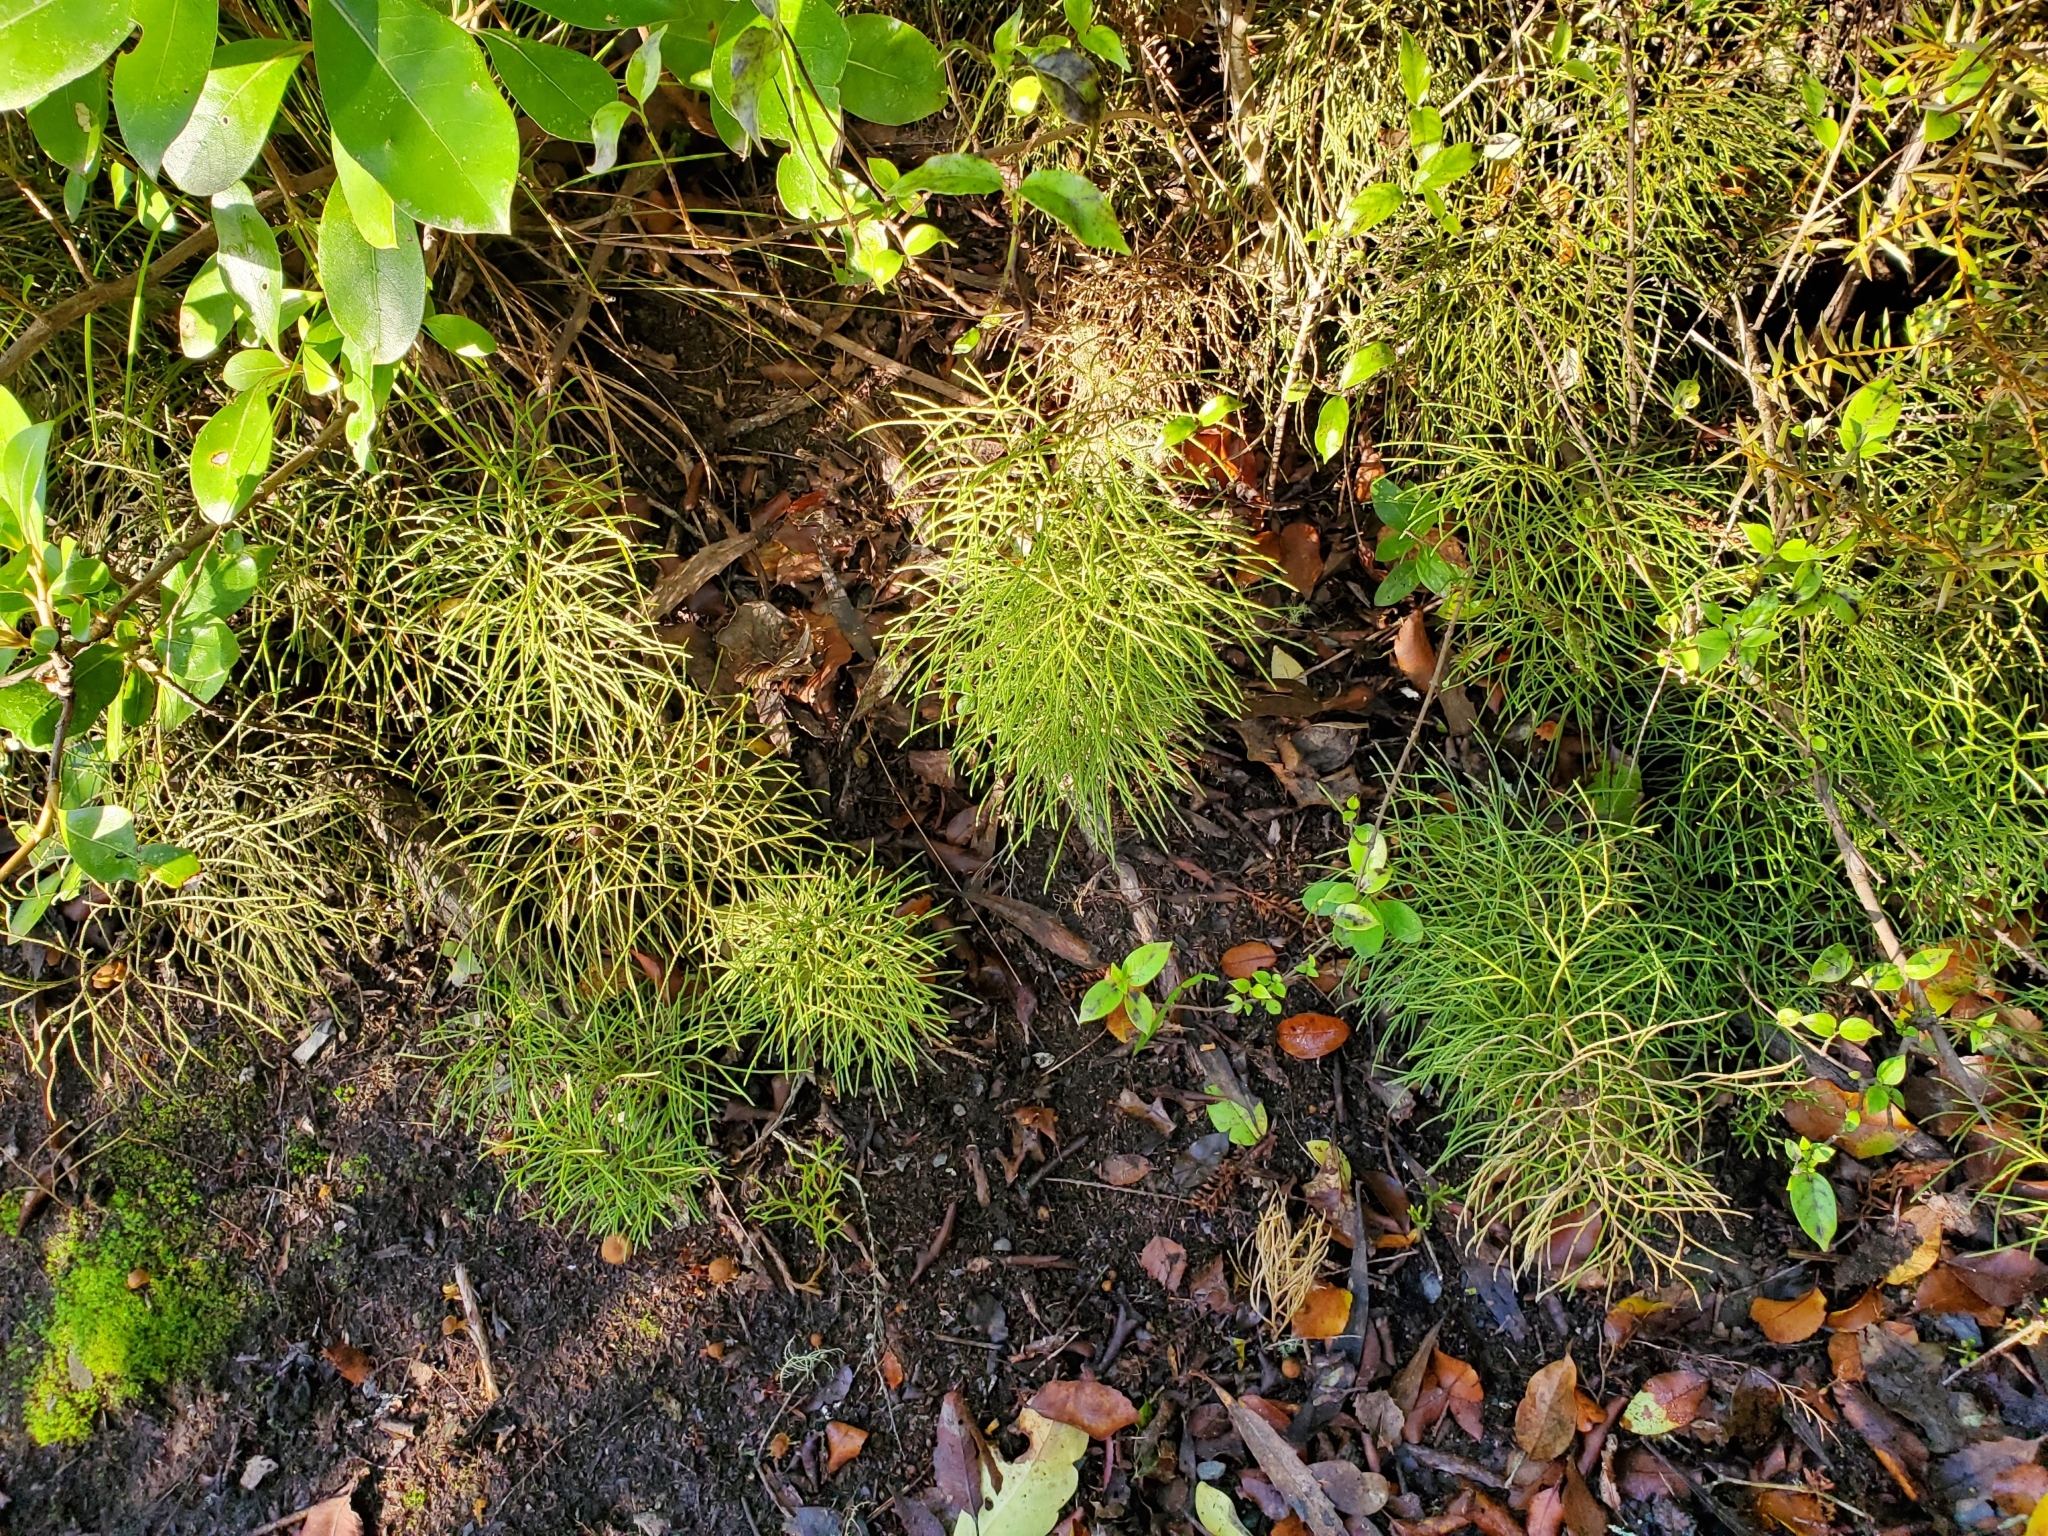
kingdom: Plantae
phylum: Tracheophyta
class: Lycopodiopsida
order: Lycopodiales
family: Lycopodiaceae
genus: Pseudolycopodium
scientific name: Pseudolycopodium densum
